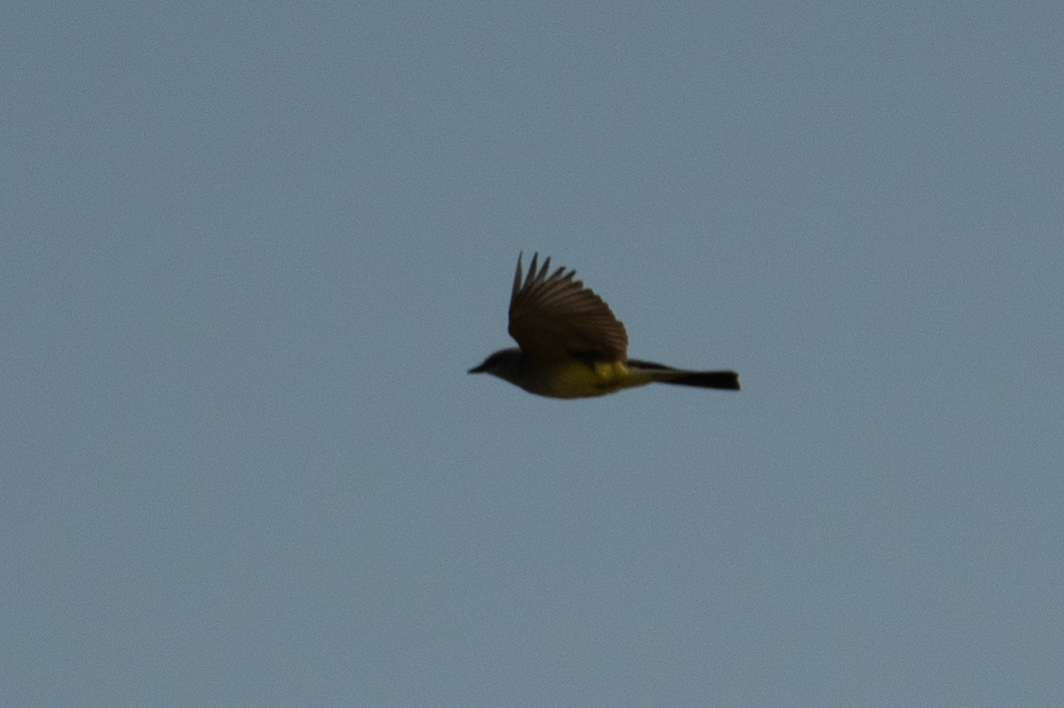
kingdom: Animalia
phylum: Chordata
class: Aves
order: Passeriformes
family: Tyrannidae
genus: Tyrannus
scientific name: Tyrannus verticalis
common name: Western kingbird
